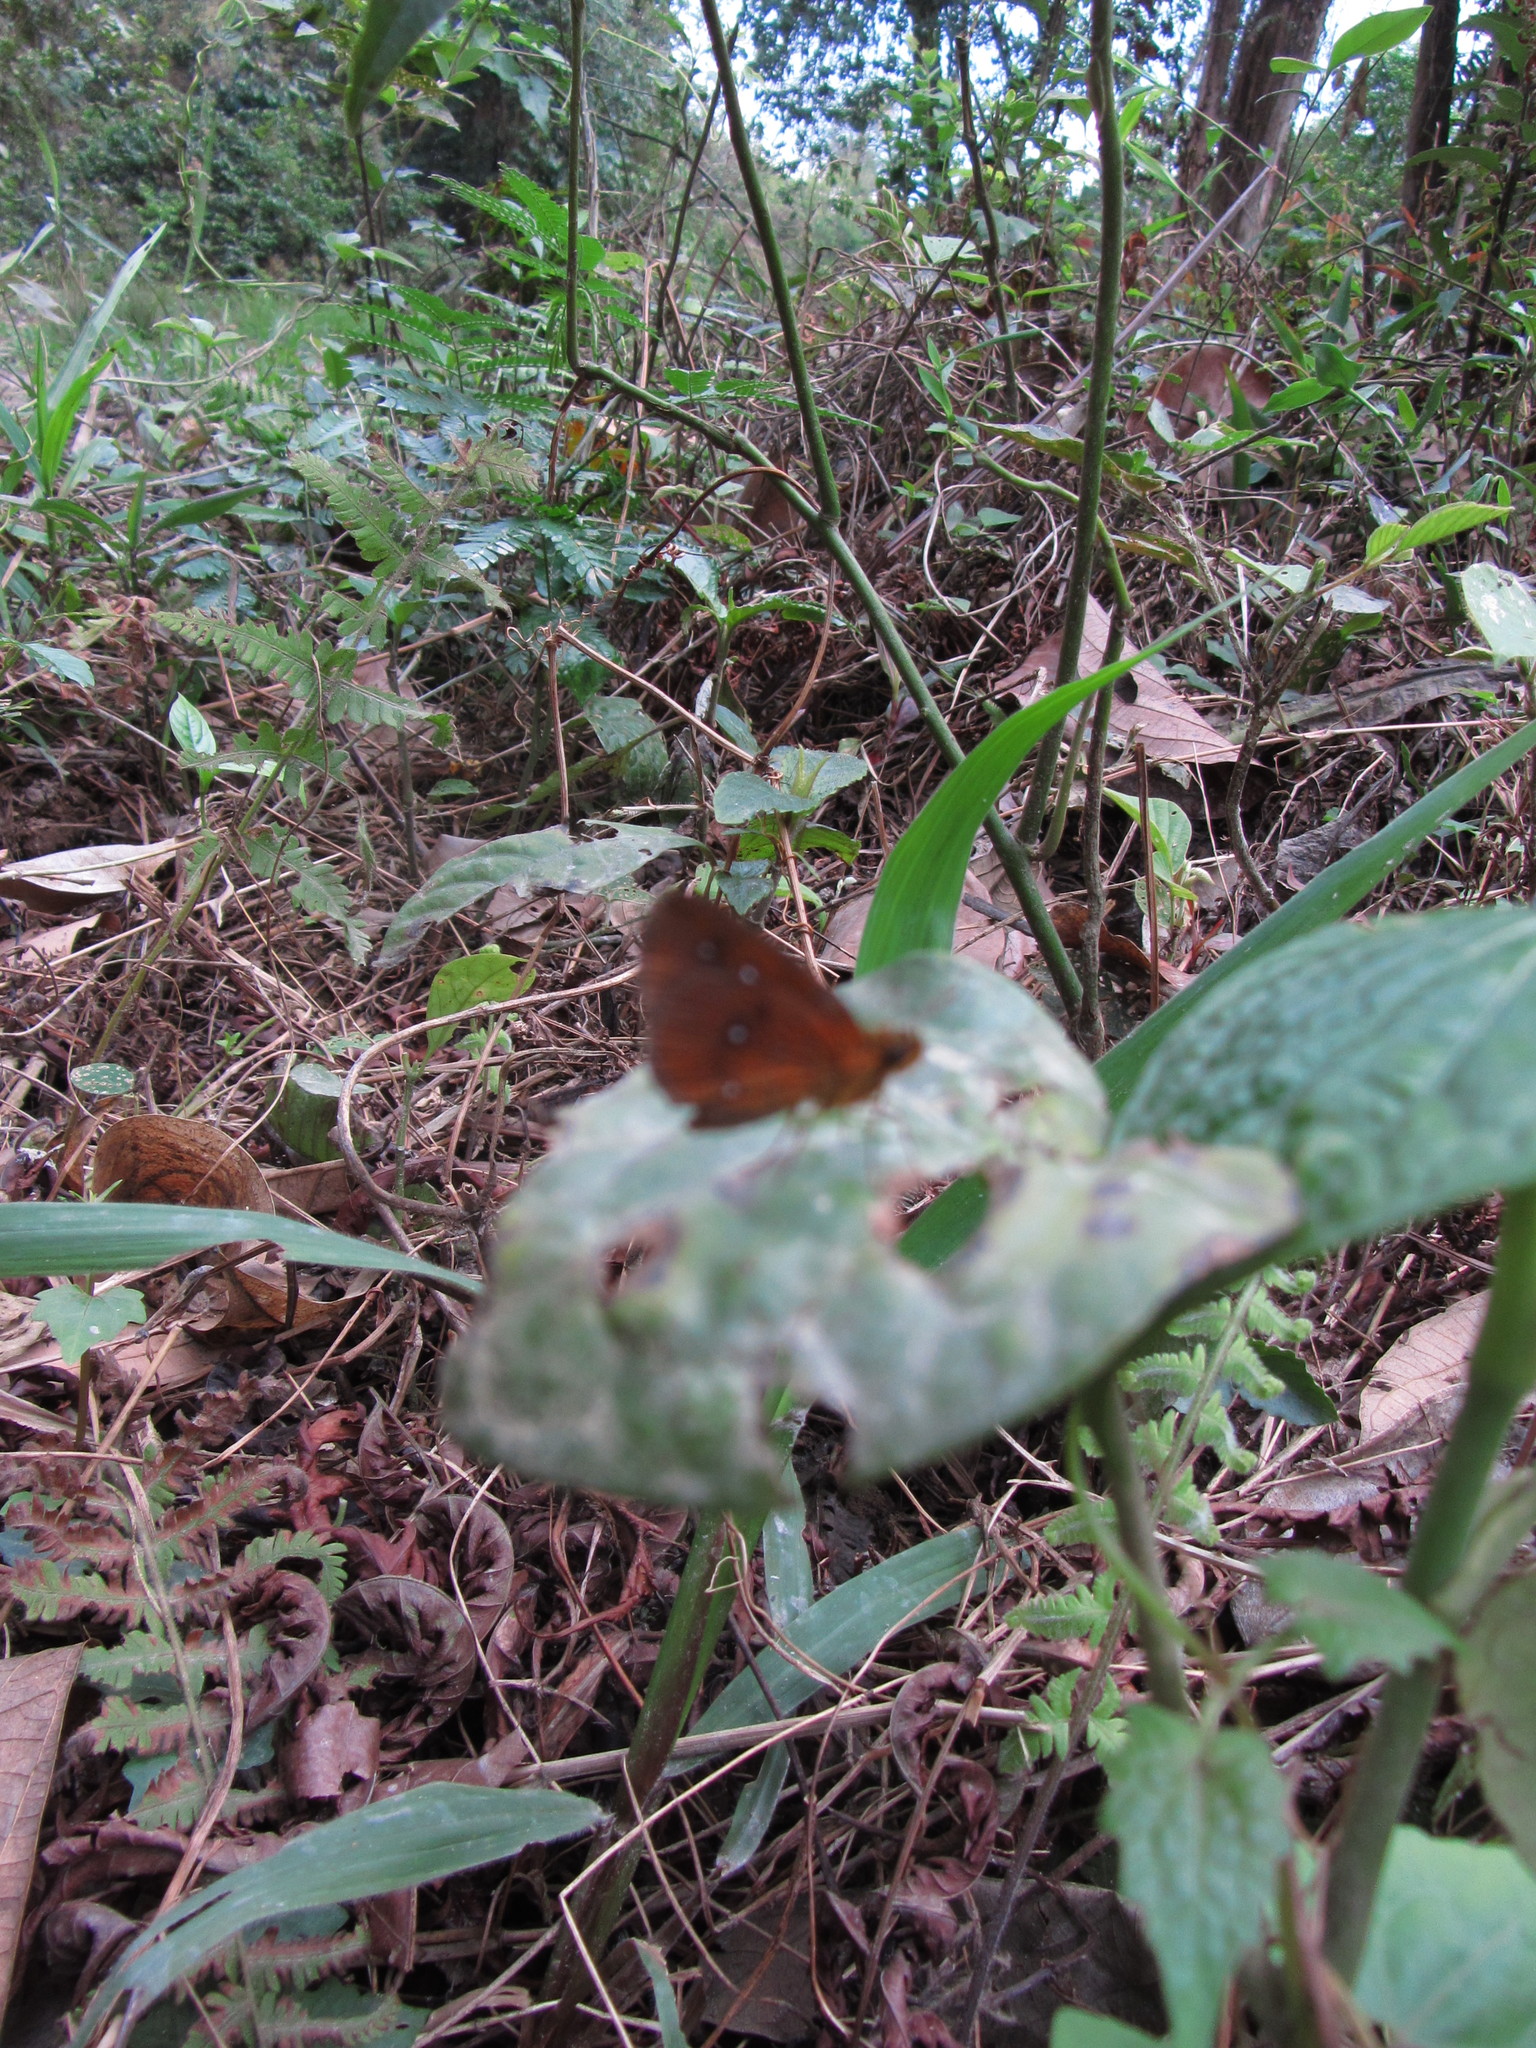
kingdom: Animalia
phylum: Arthropoda
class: Insecta
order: Lepidoptera
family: Hesperiidae
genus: Iambrix
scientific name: Iambrix salsala
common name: Chestnut bob
